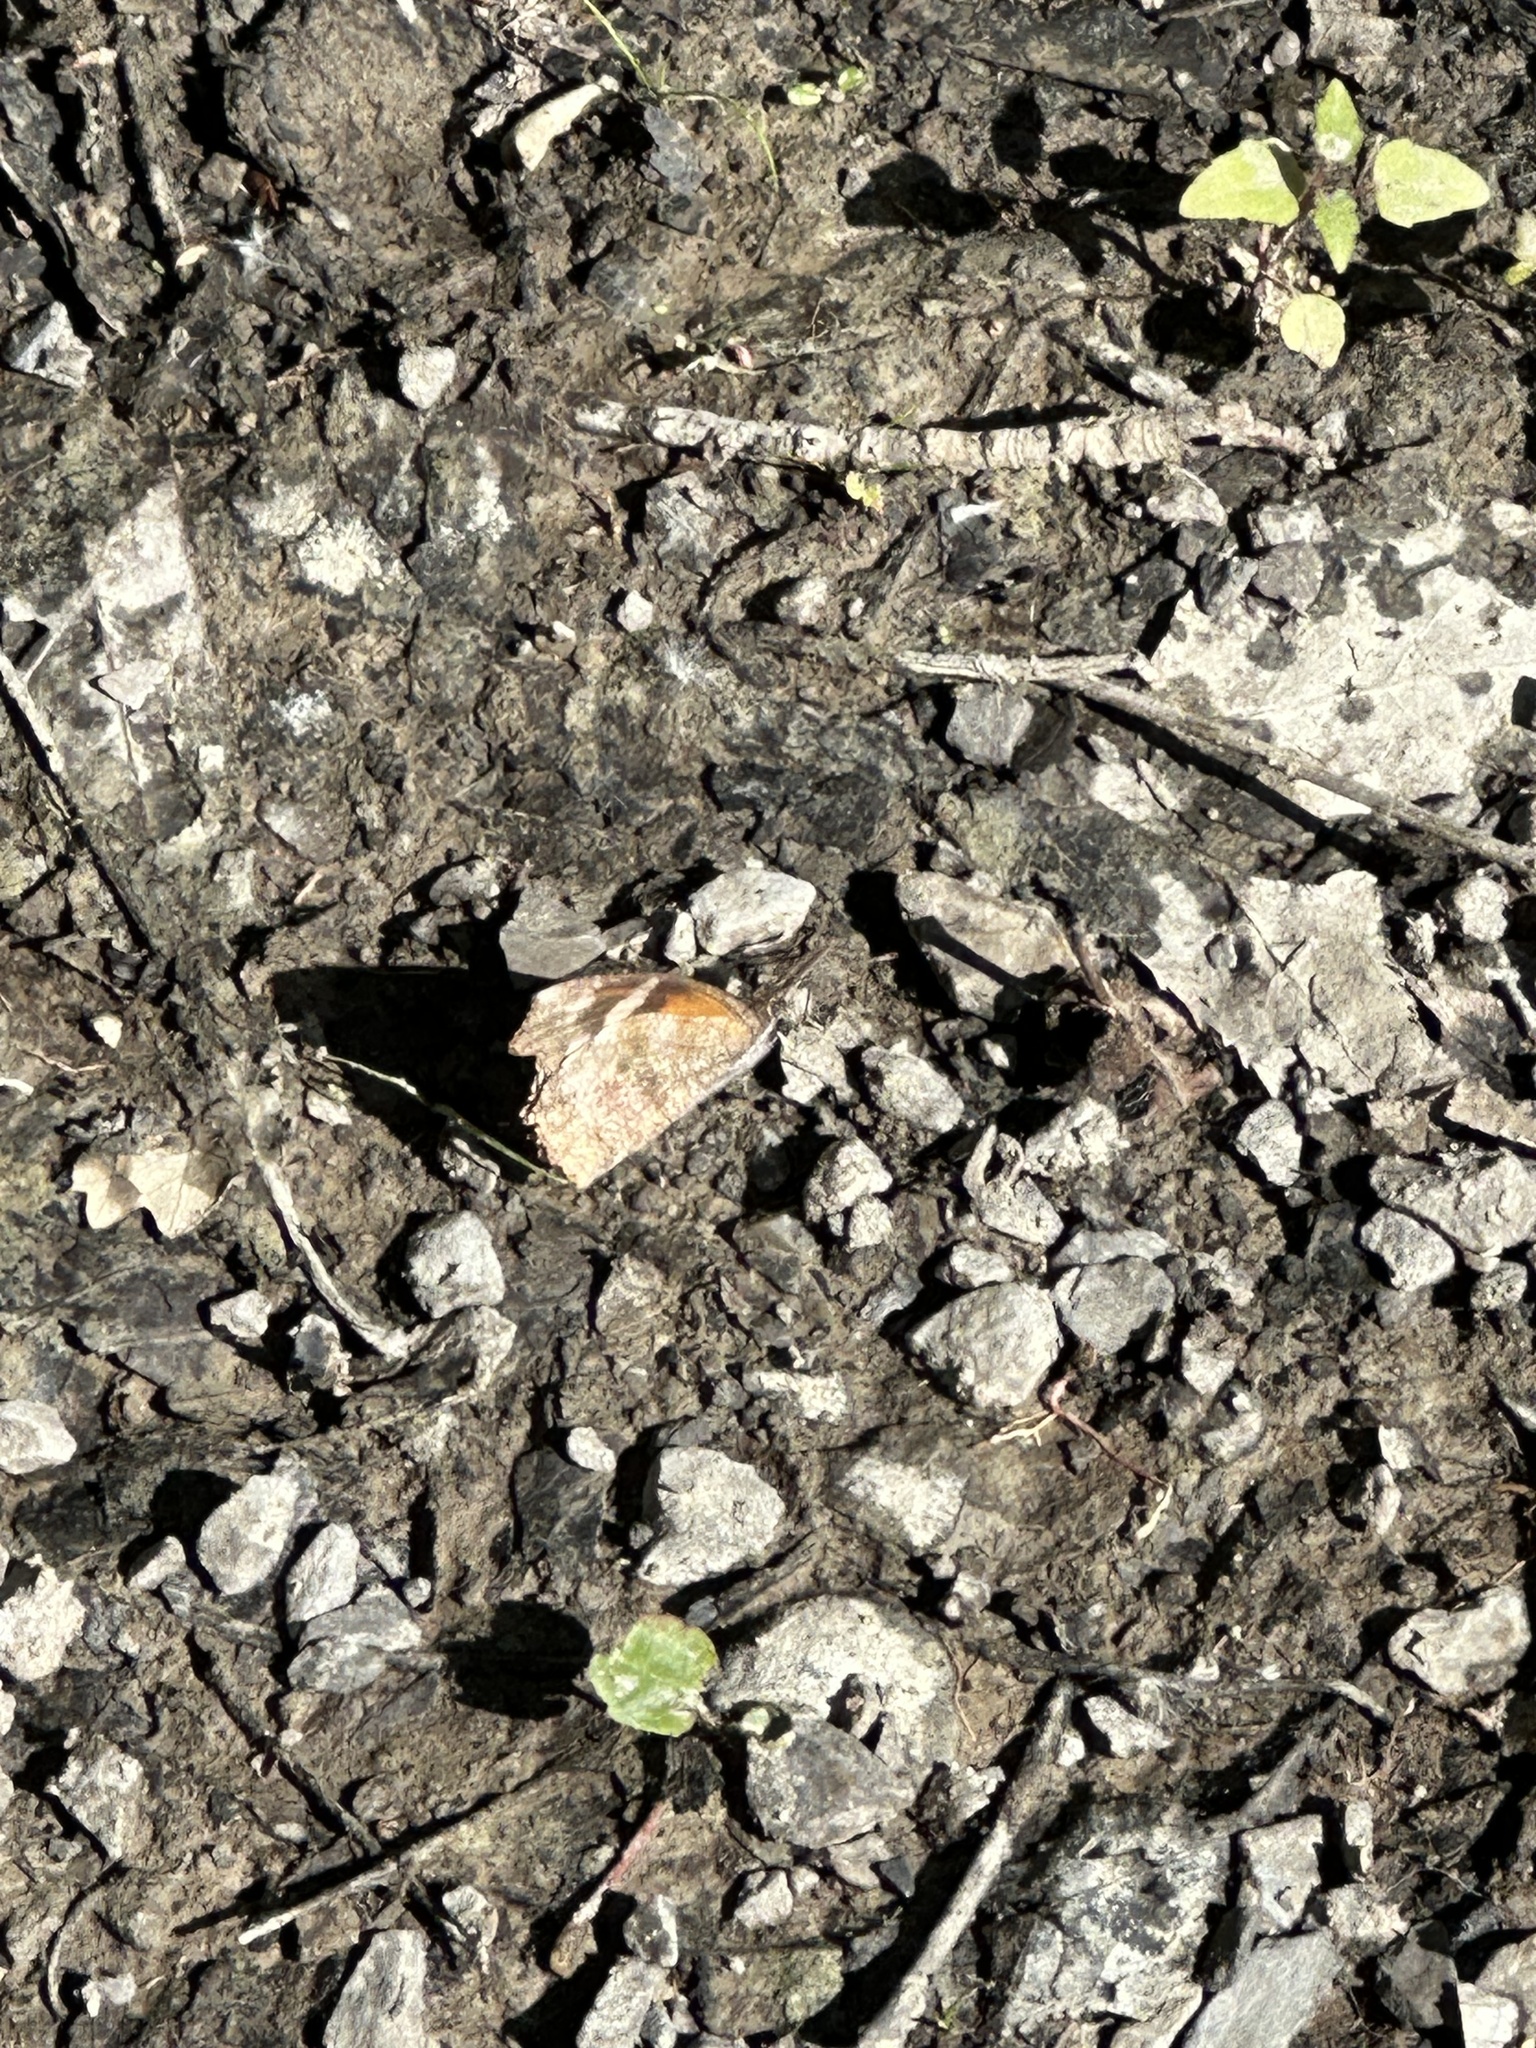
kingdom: Animalia
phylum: Arthropoda
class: Insecta
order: Lepidoptera
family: Nymphalidae
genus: Libytheana
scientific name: Libytheana carinenta
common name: American snout
